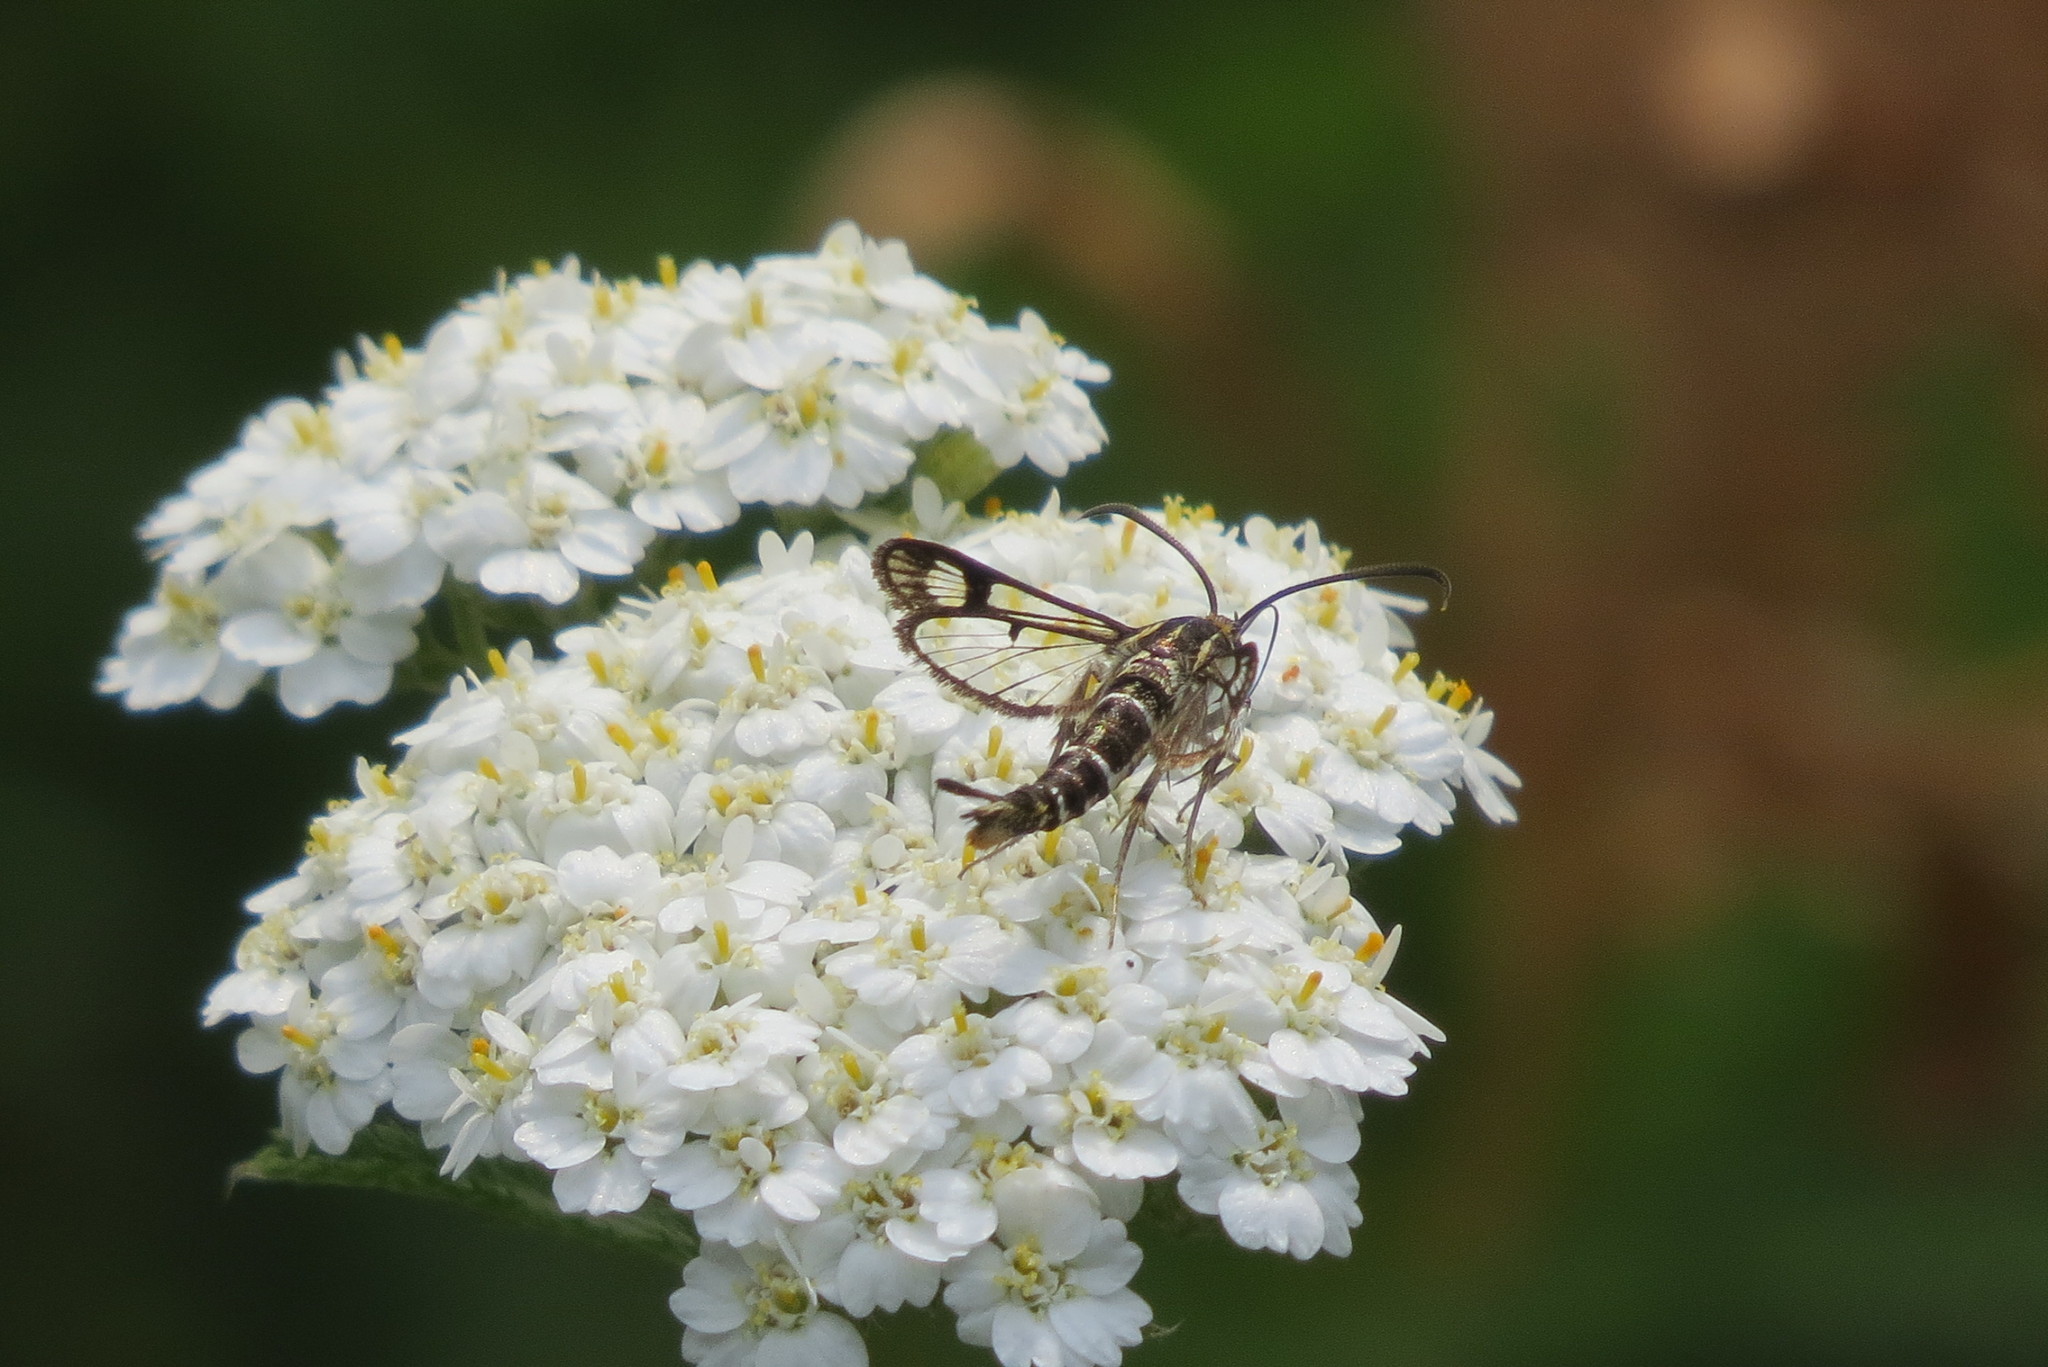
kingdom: Animalia
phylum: Arthropoda
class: Insecta
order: Lepidoptera
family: Sesiidae
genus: Pyropteron
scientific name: Pyropteron triannuliformis
